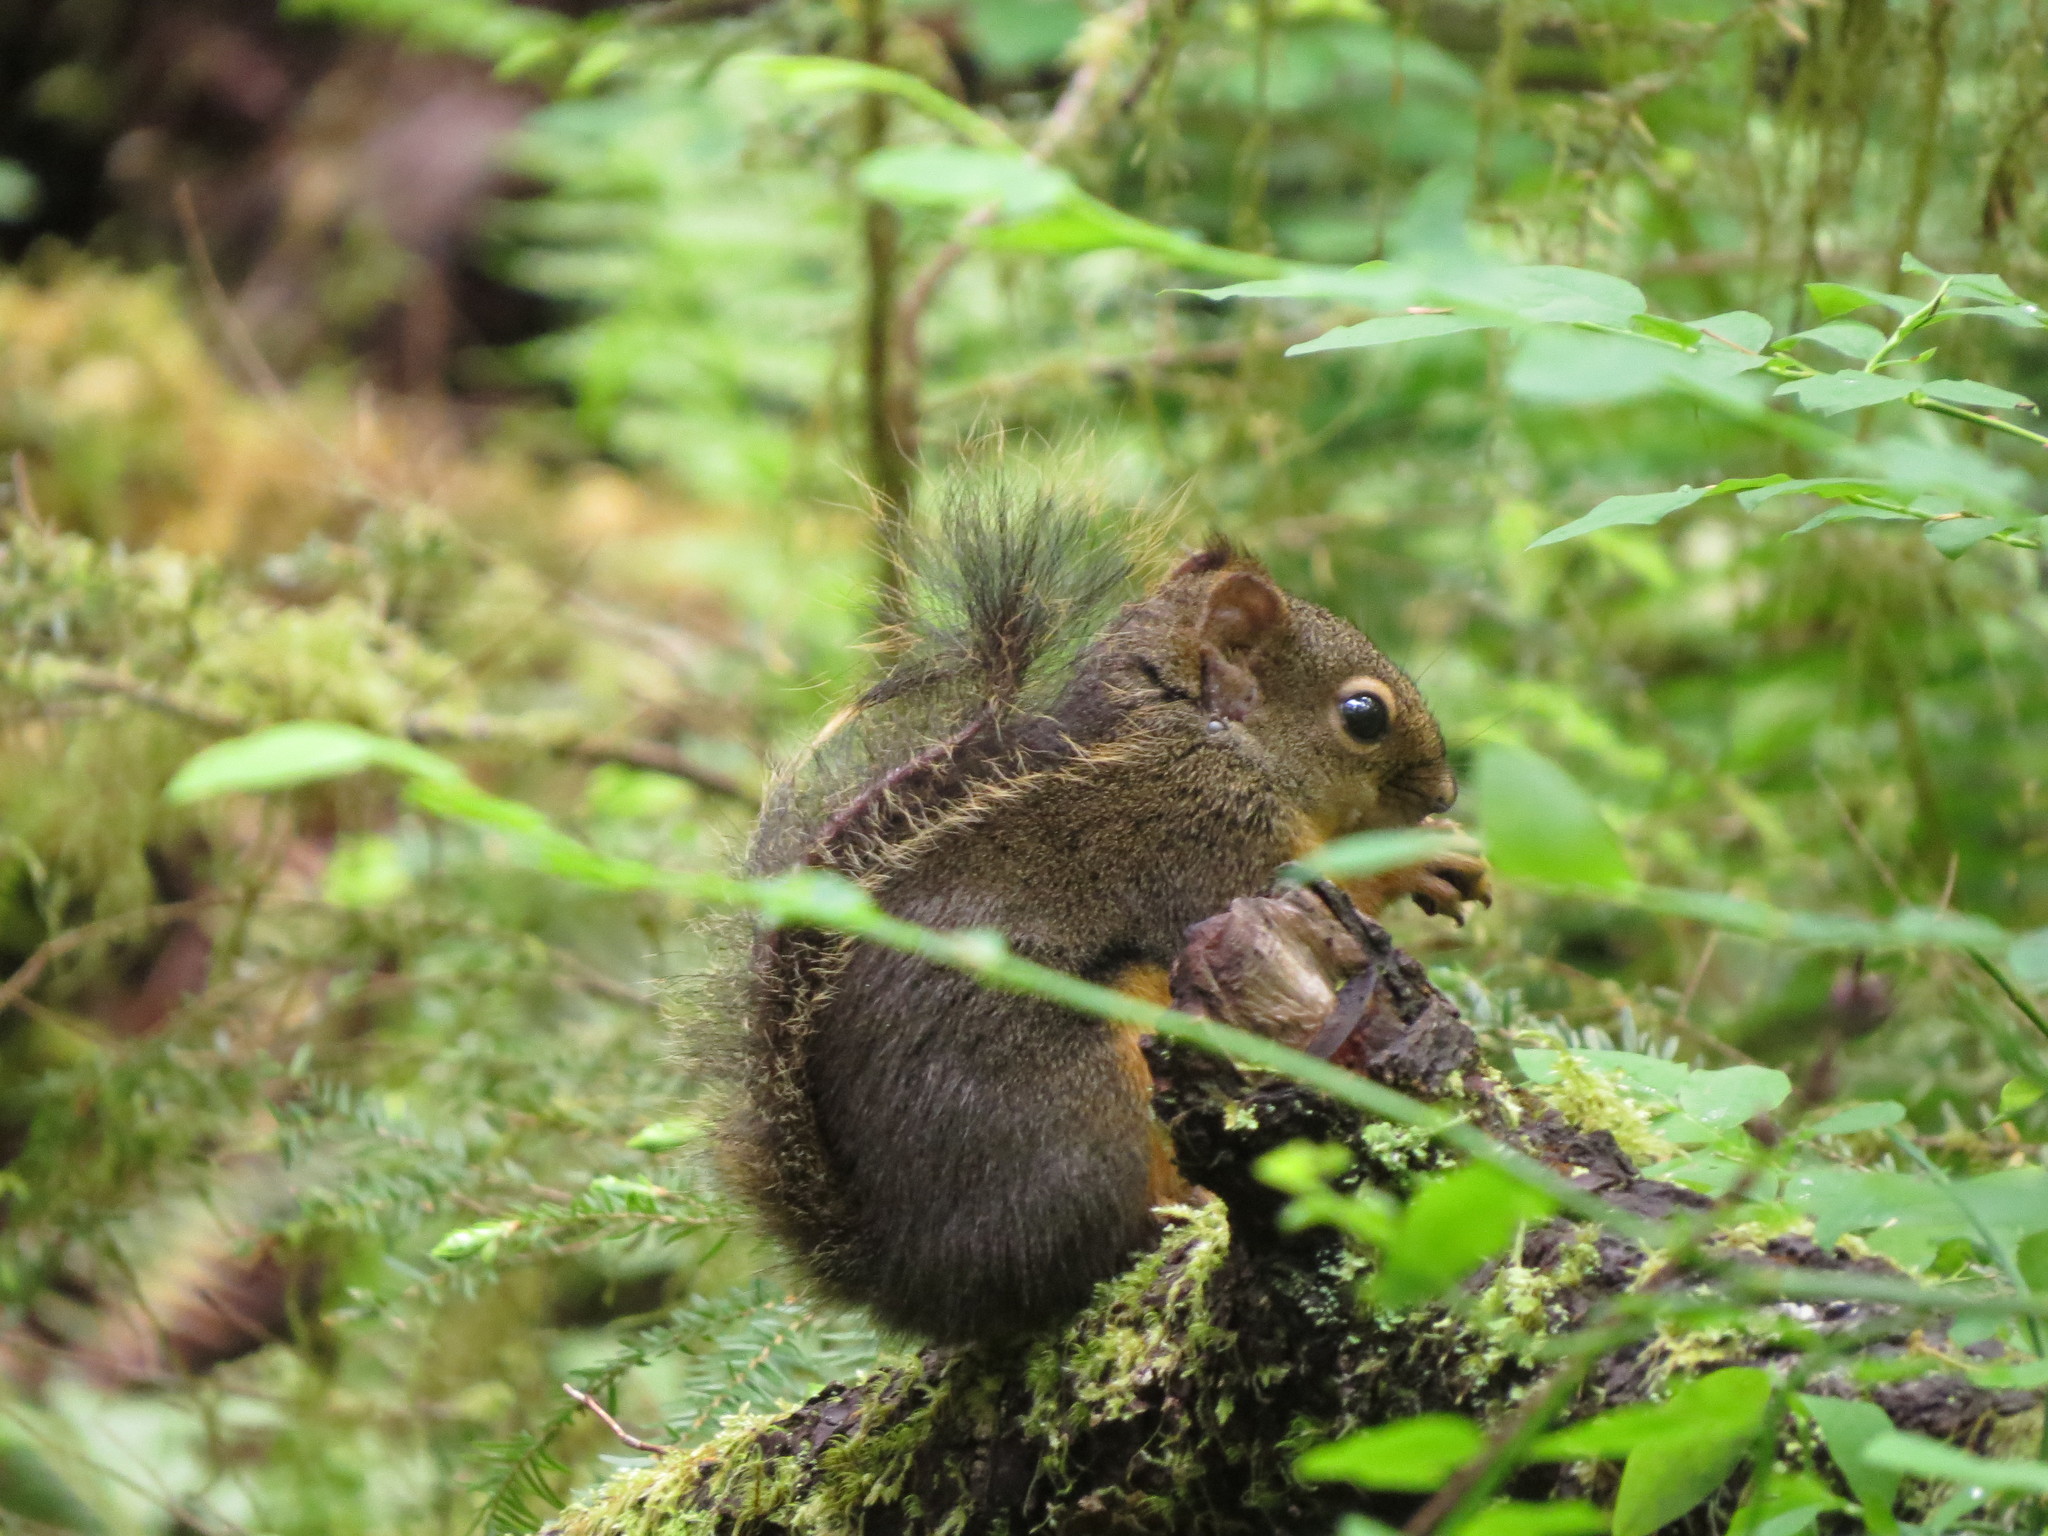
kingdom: Animalia
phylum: Chordata
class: Mammalia
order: Rodentia
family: Sciuridae
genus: Tamiasciurus
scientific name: Tamiasciurus douglasii
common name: Douglas's squirrel
